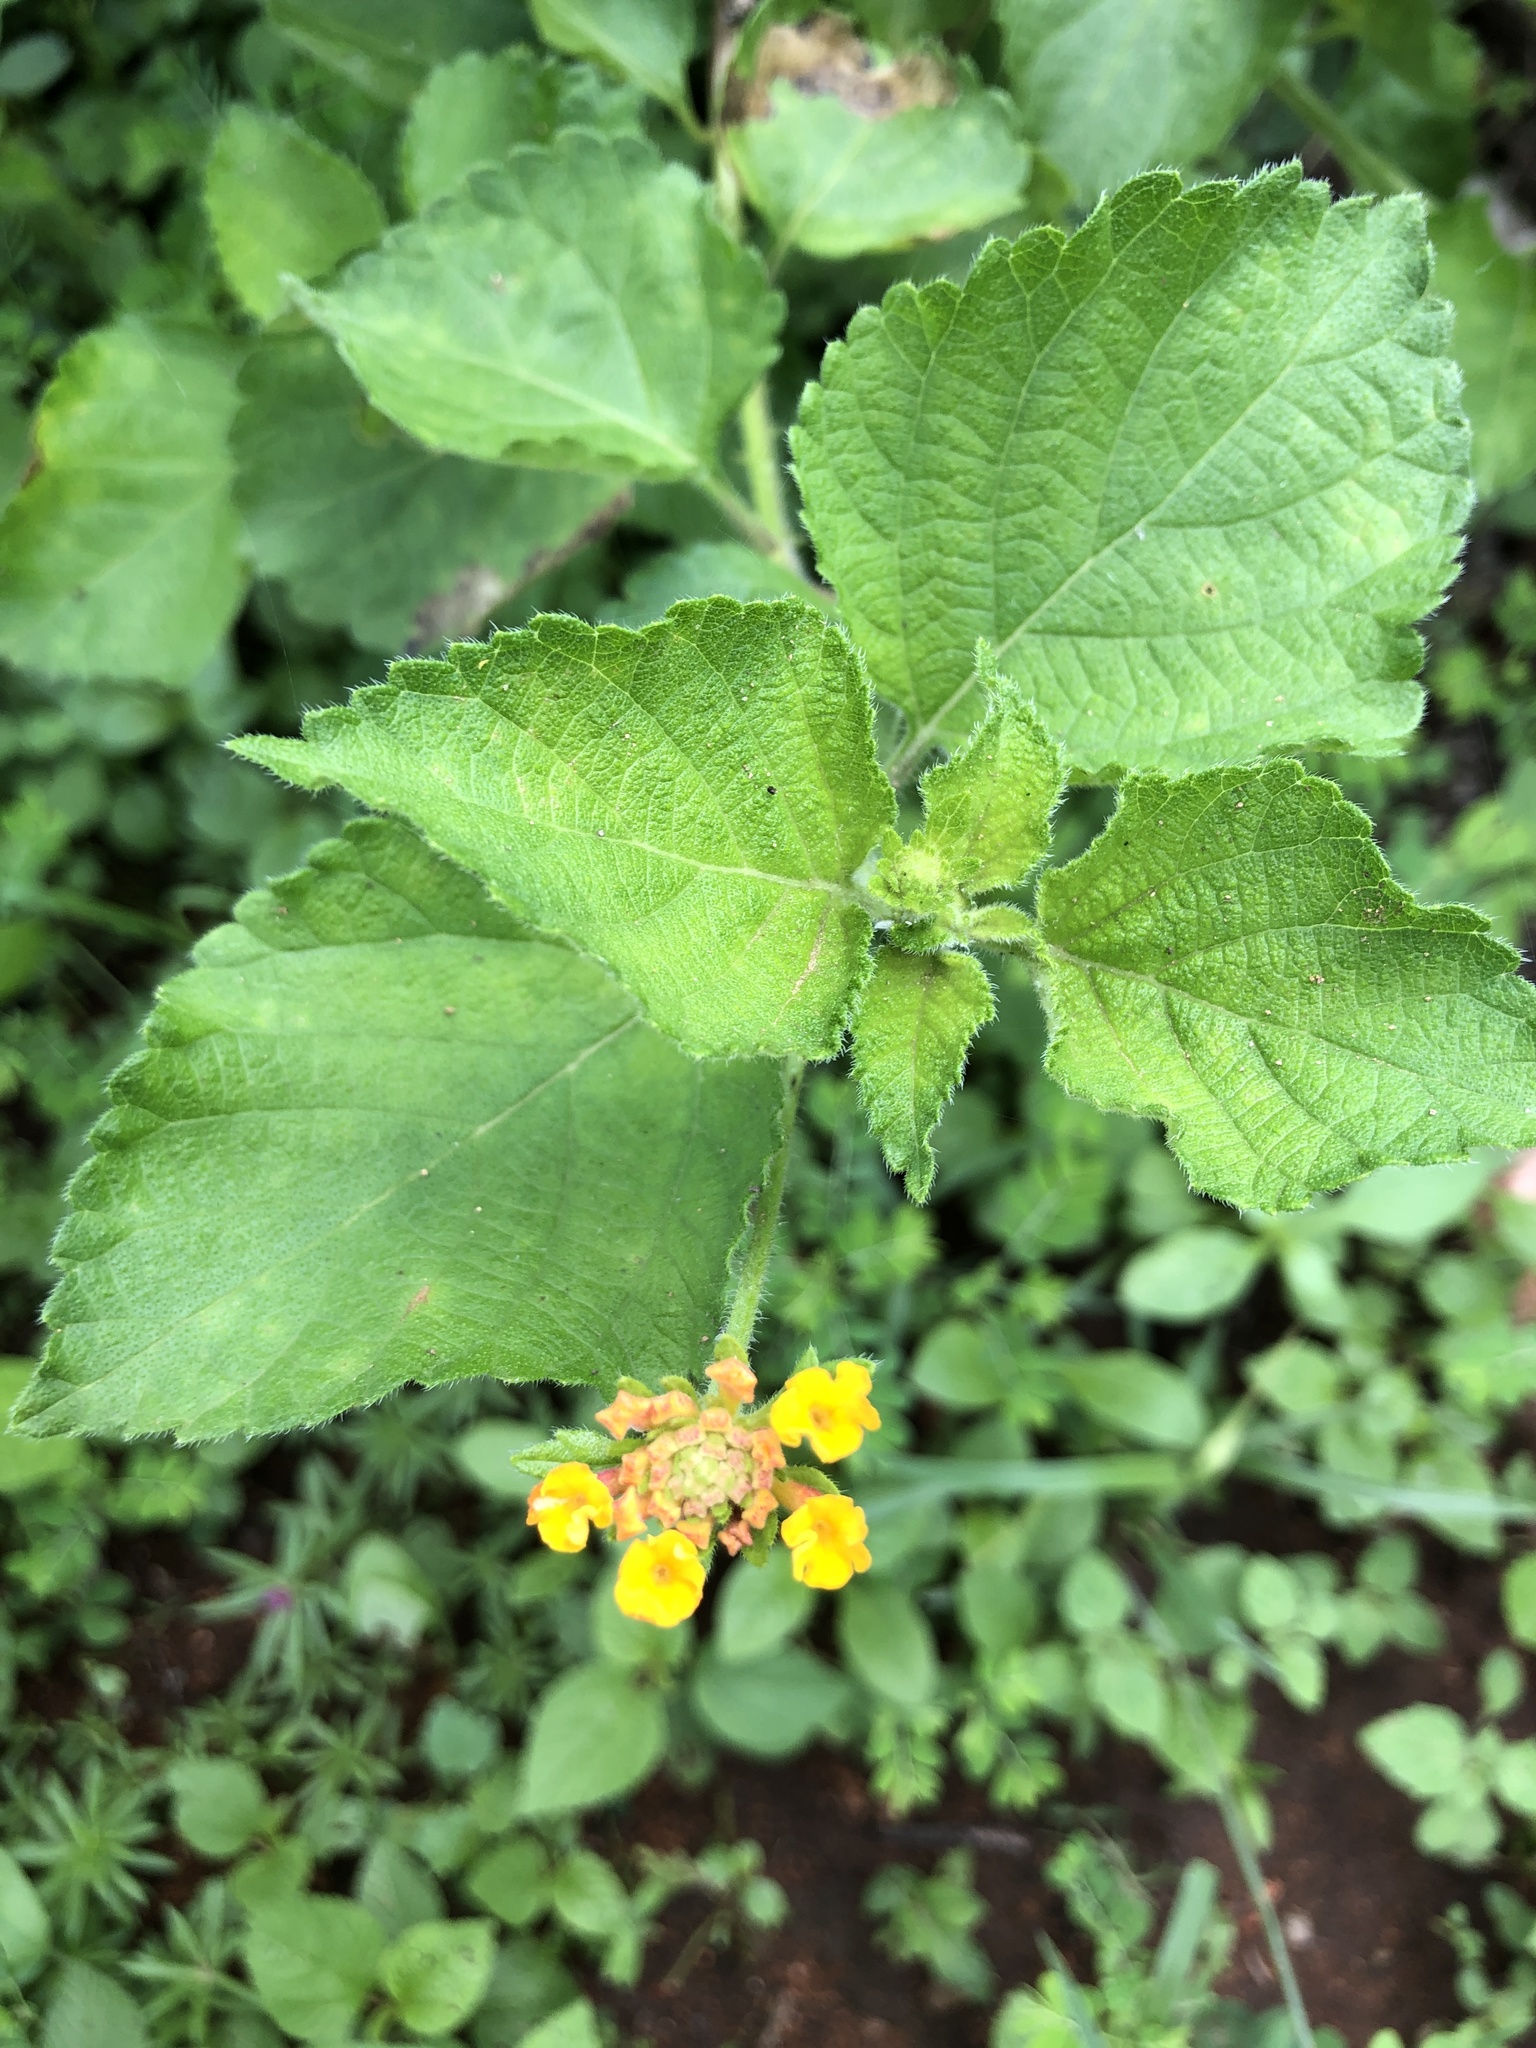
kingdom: Plantae
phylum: Tracheophyta
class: Magnoliopsida
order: Lamiales
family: Verbenaceae
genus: Lantana
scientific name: Lantana camara
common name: Lantana
